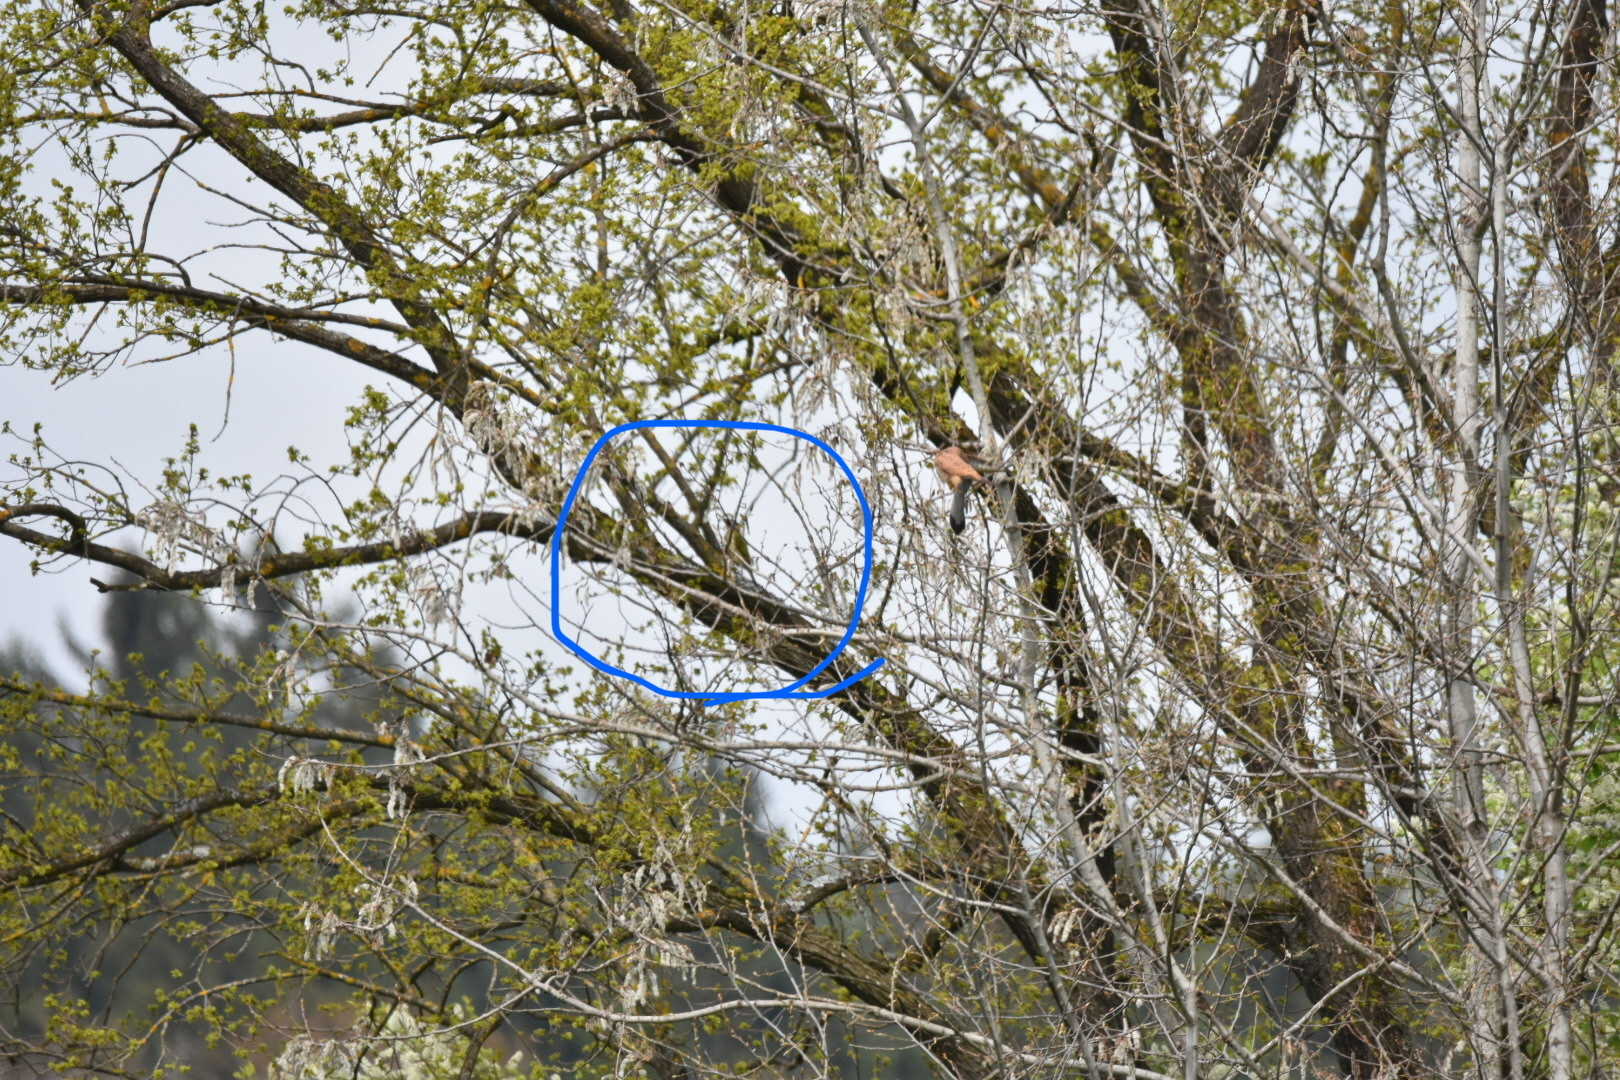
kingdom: Animalia
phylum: Chordata
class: Aves
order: Piciformes
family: Picidae
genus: Picus
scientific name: Picus viridis
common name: European green woodpecker
